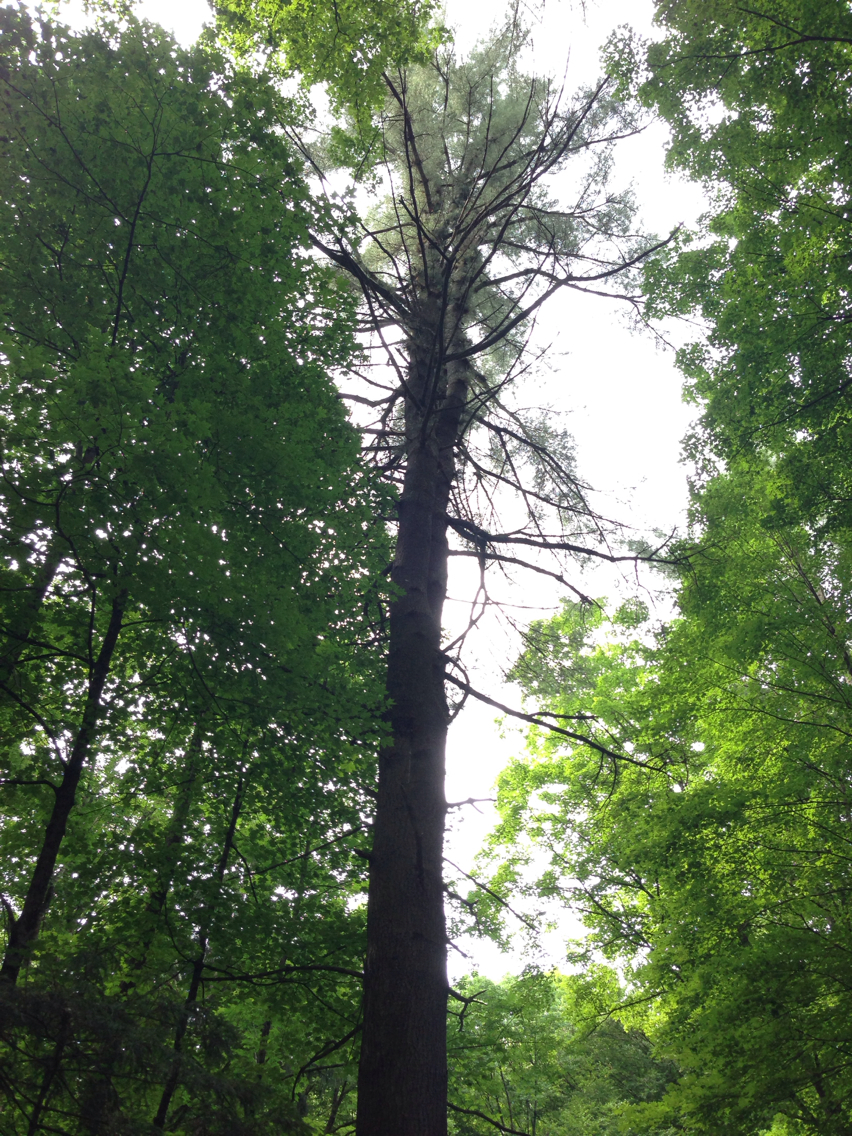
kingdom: Plantae
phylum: Tracheophyta
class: Pinopsida
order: Pinales
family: Pinaceae
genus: Pinus
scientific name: Pinus strobus
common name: Weymouth pine
